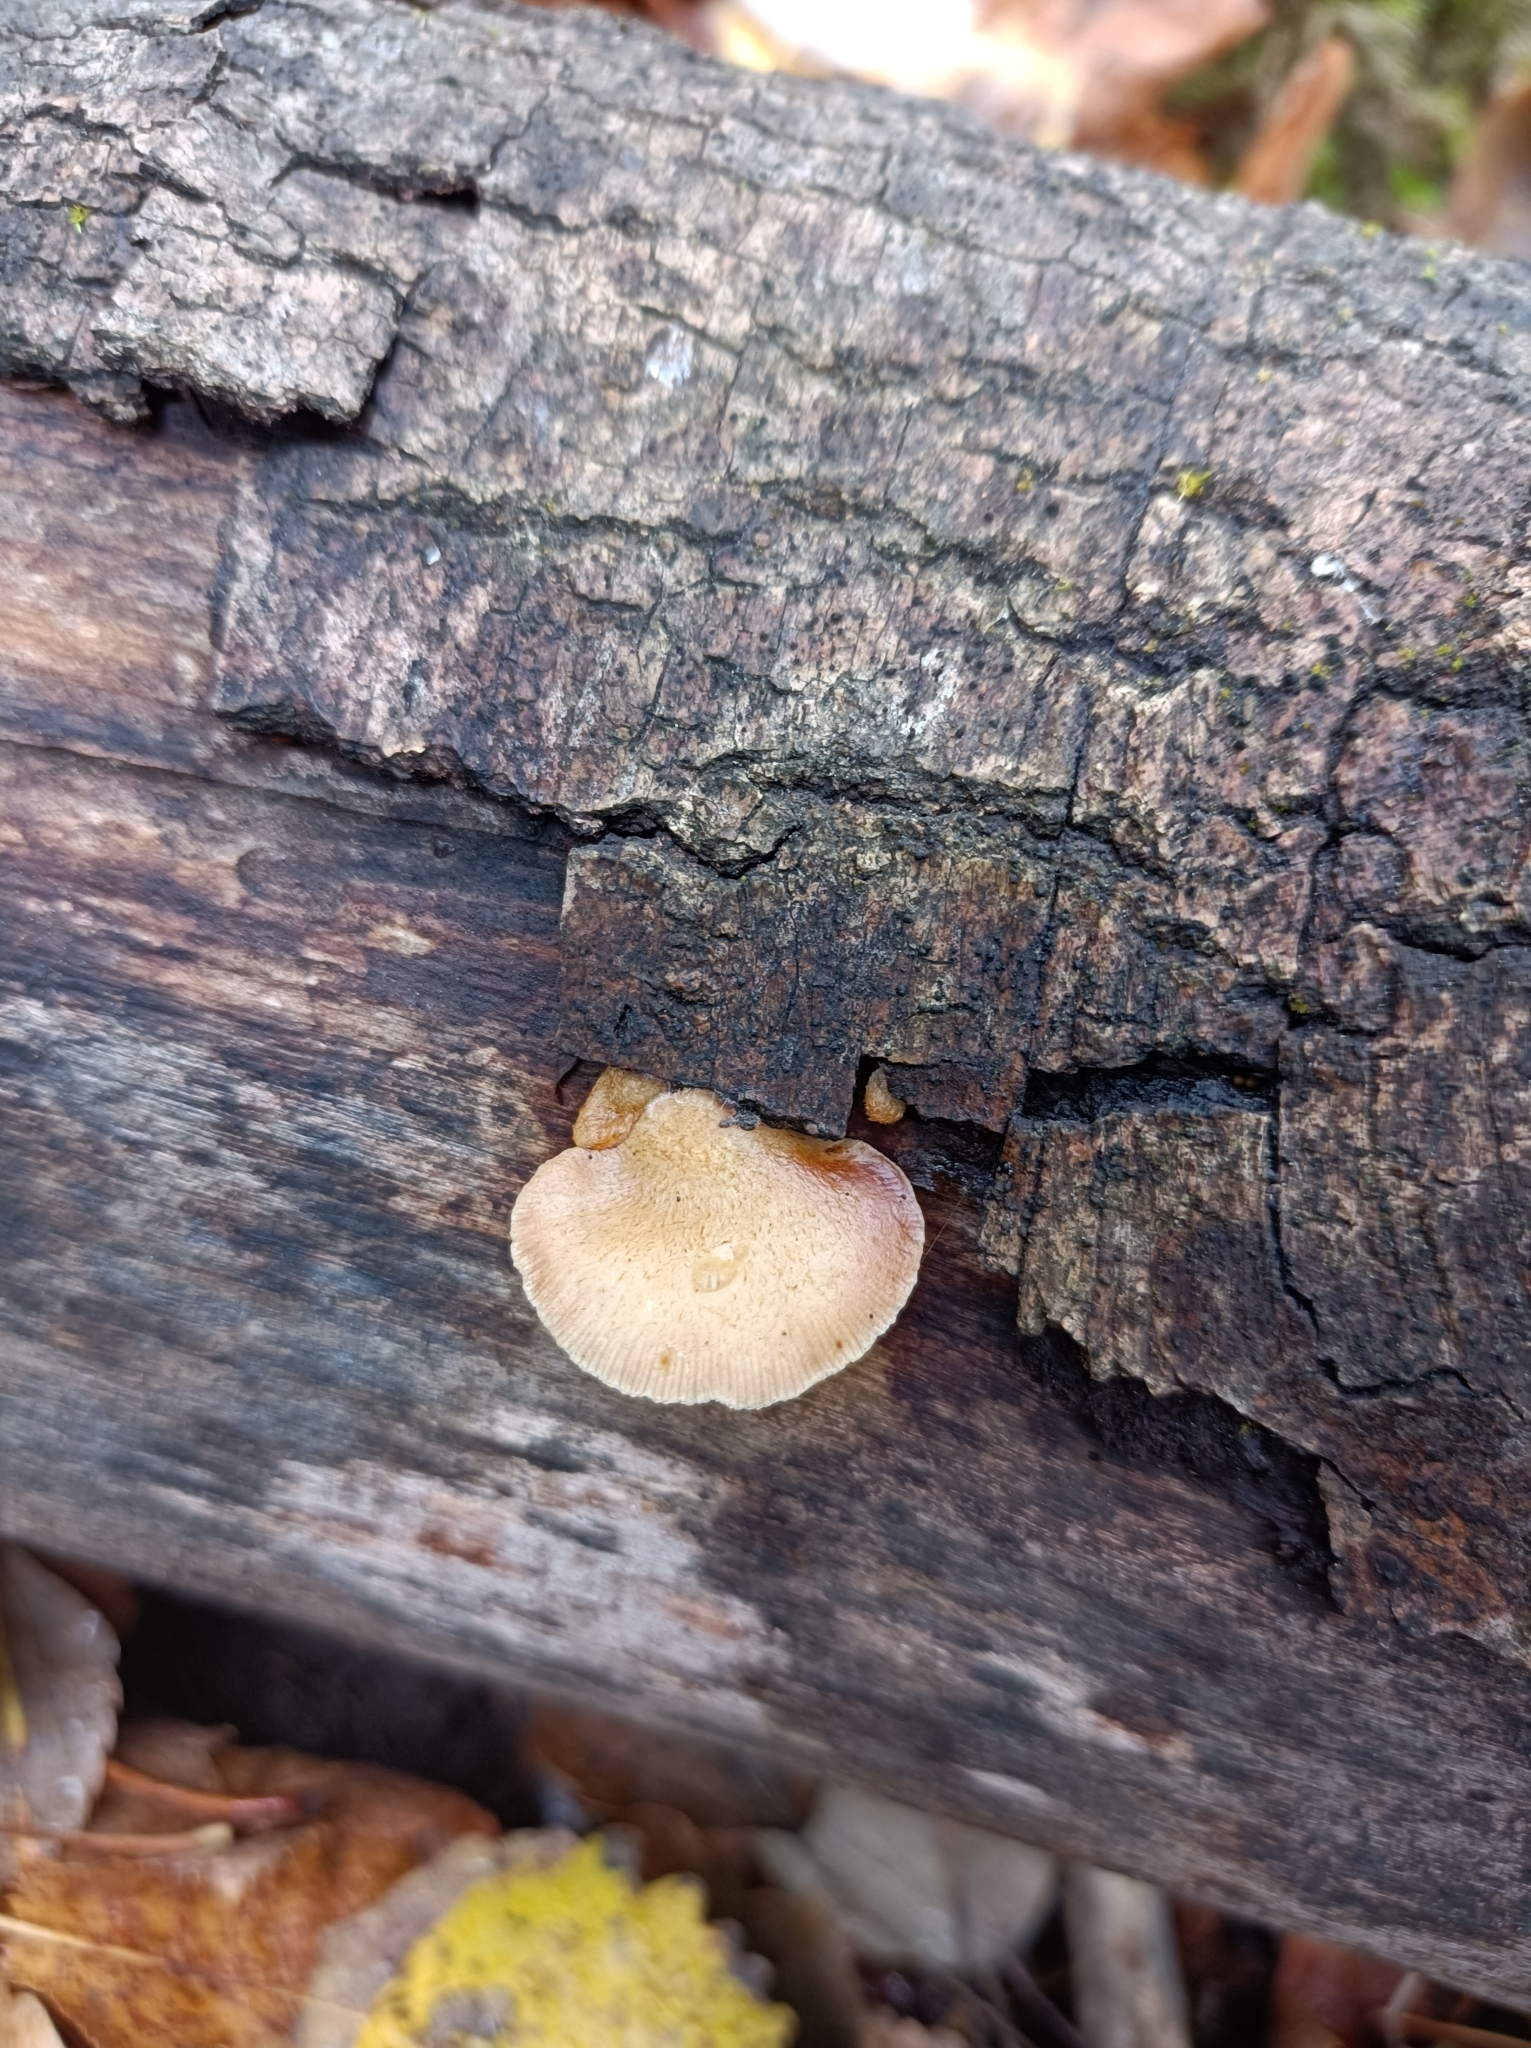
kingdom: Fungi
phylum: Basidiomycota
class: Agaricomycetes
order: Agaricales
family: Crepidotaceae
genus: Crepidotus
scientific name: Crepidotus mollis
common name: Peeling oysterling
